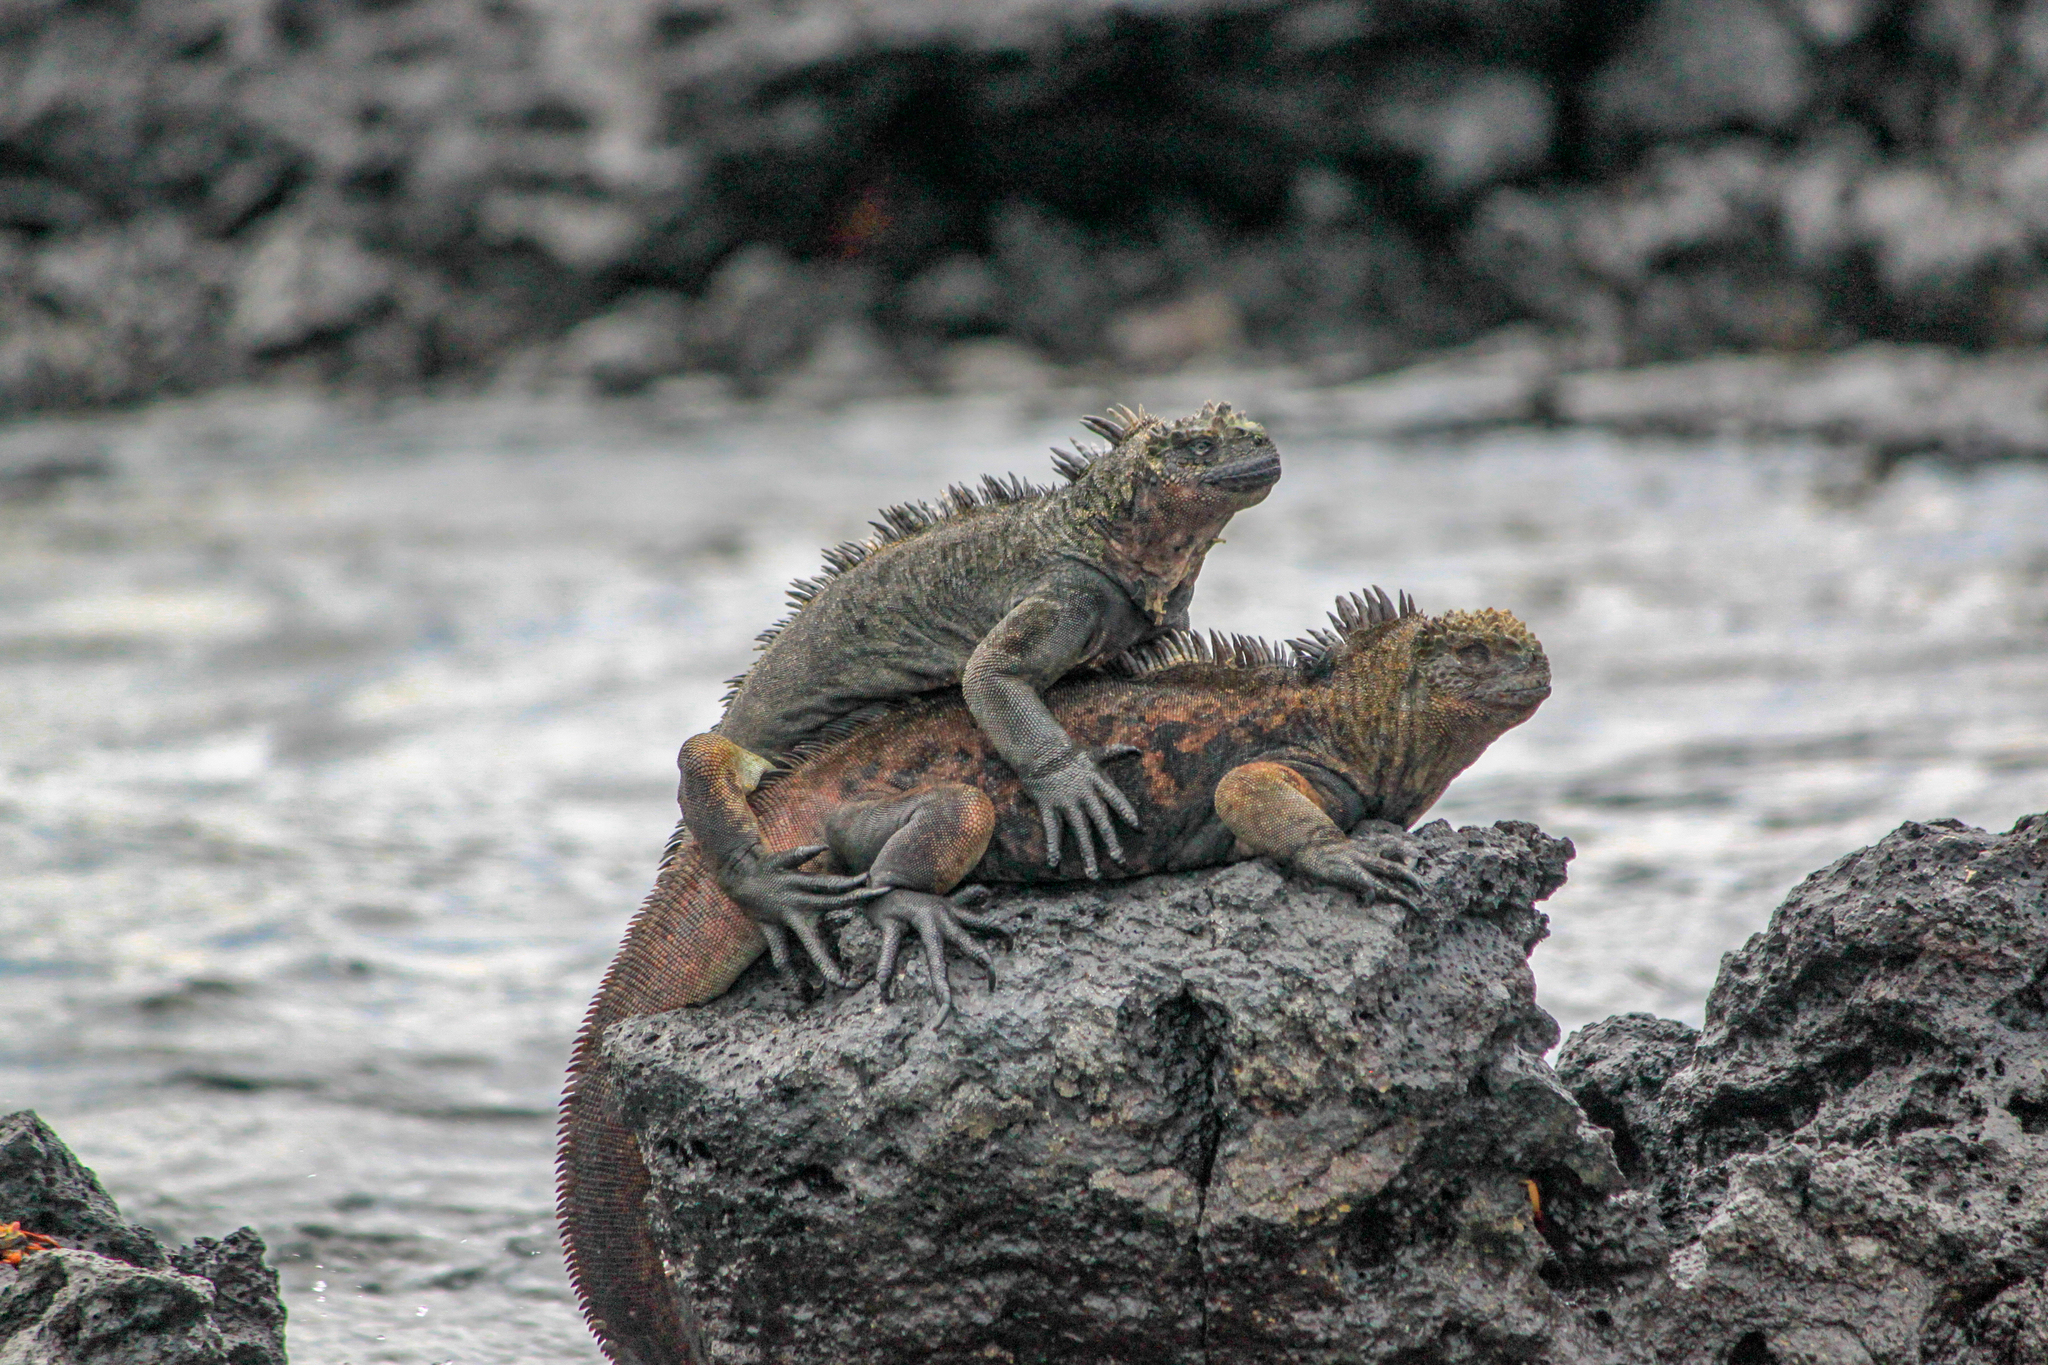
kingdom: Animalia
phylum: Chordata
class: Squamata
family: Iguanidae
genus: Amblyrhynchus
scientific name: Amblyrhynchus cristatus
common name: Marine iguana
